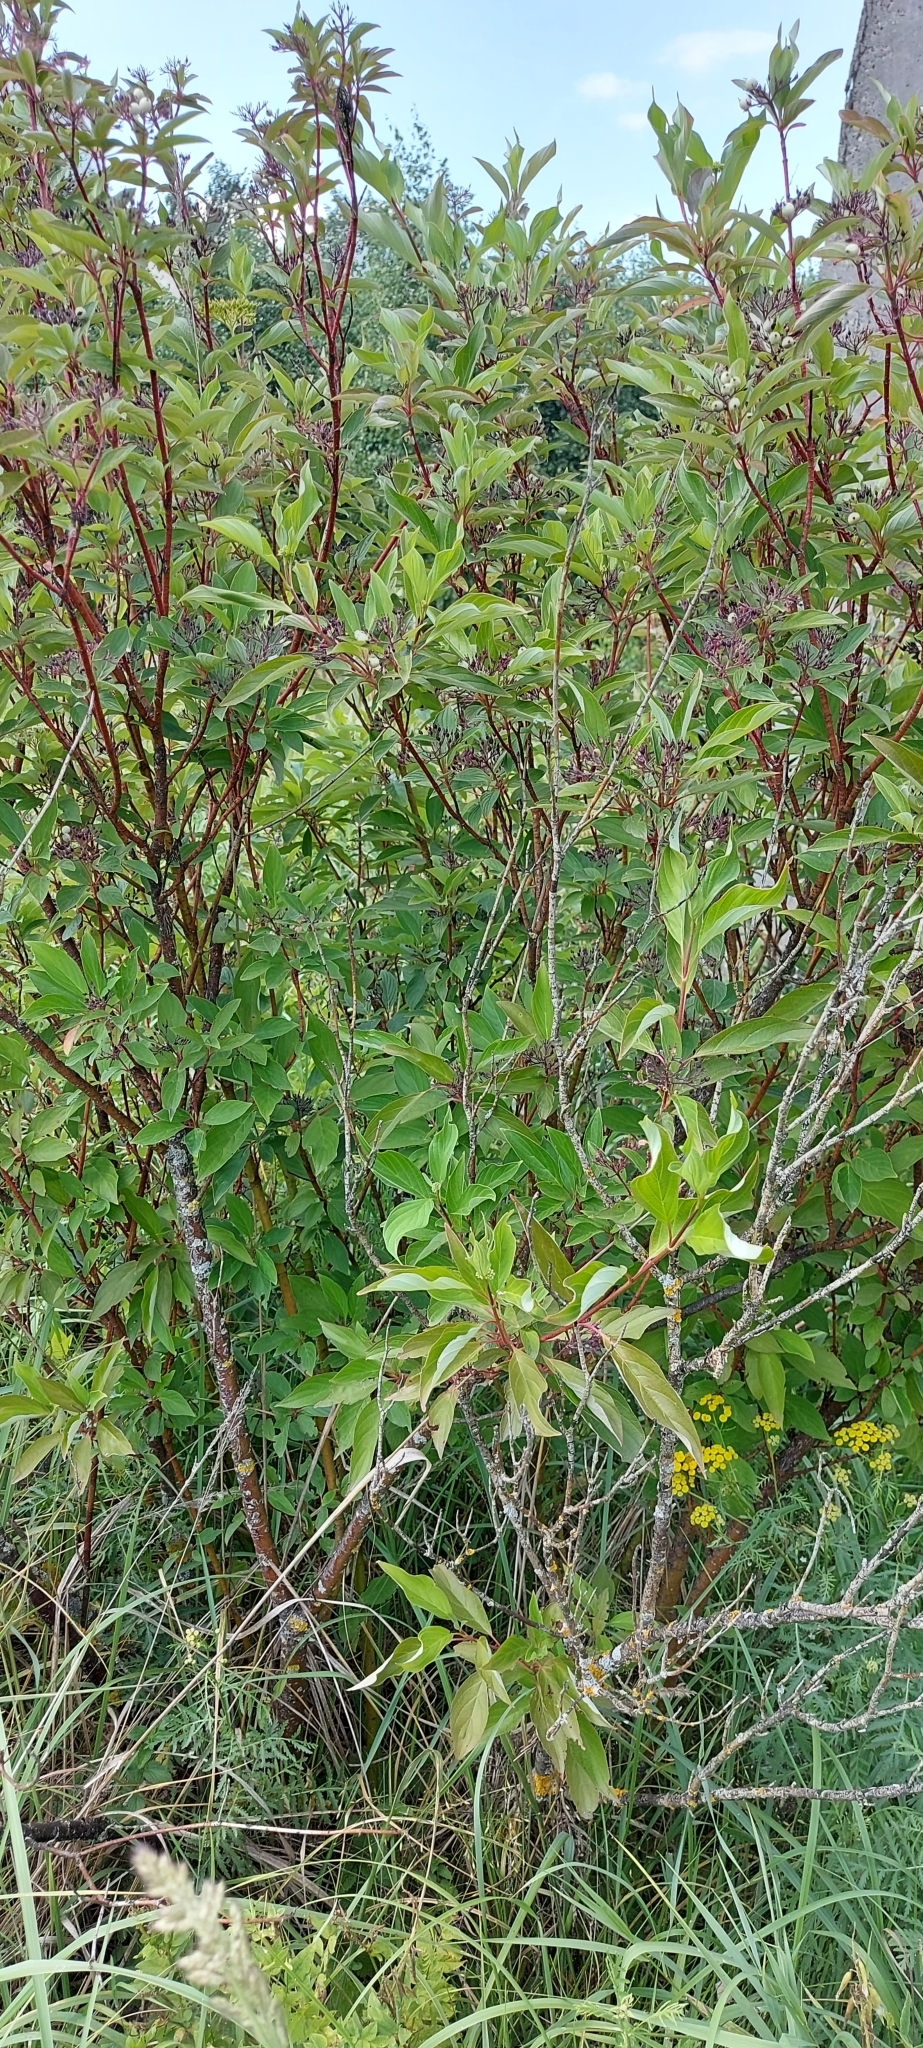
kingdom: Plantae
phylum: Tracheophyta
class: Magnoliopsida
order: Cornales
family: Cornaceae
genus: Cornus
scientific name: Cornus alba
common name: White dogwood
